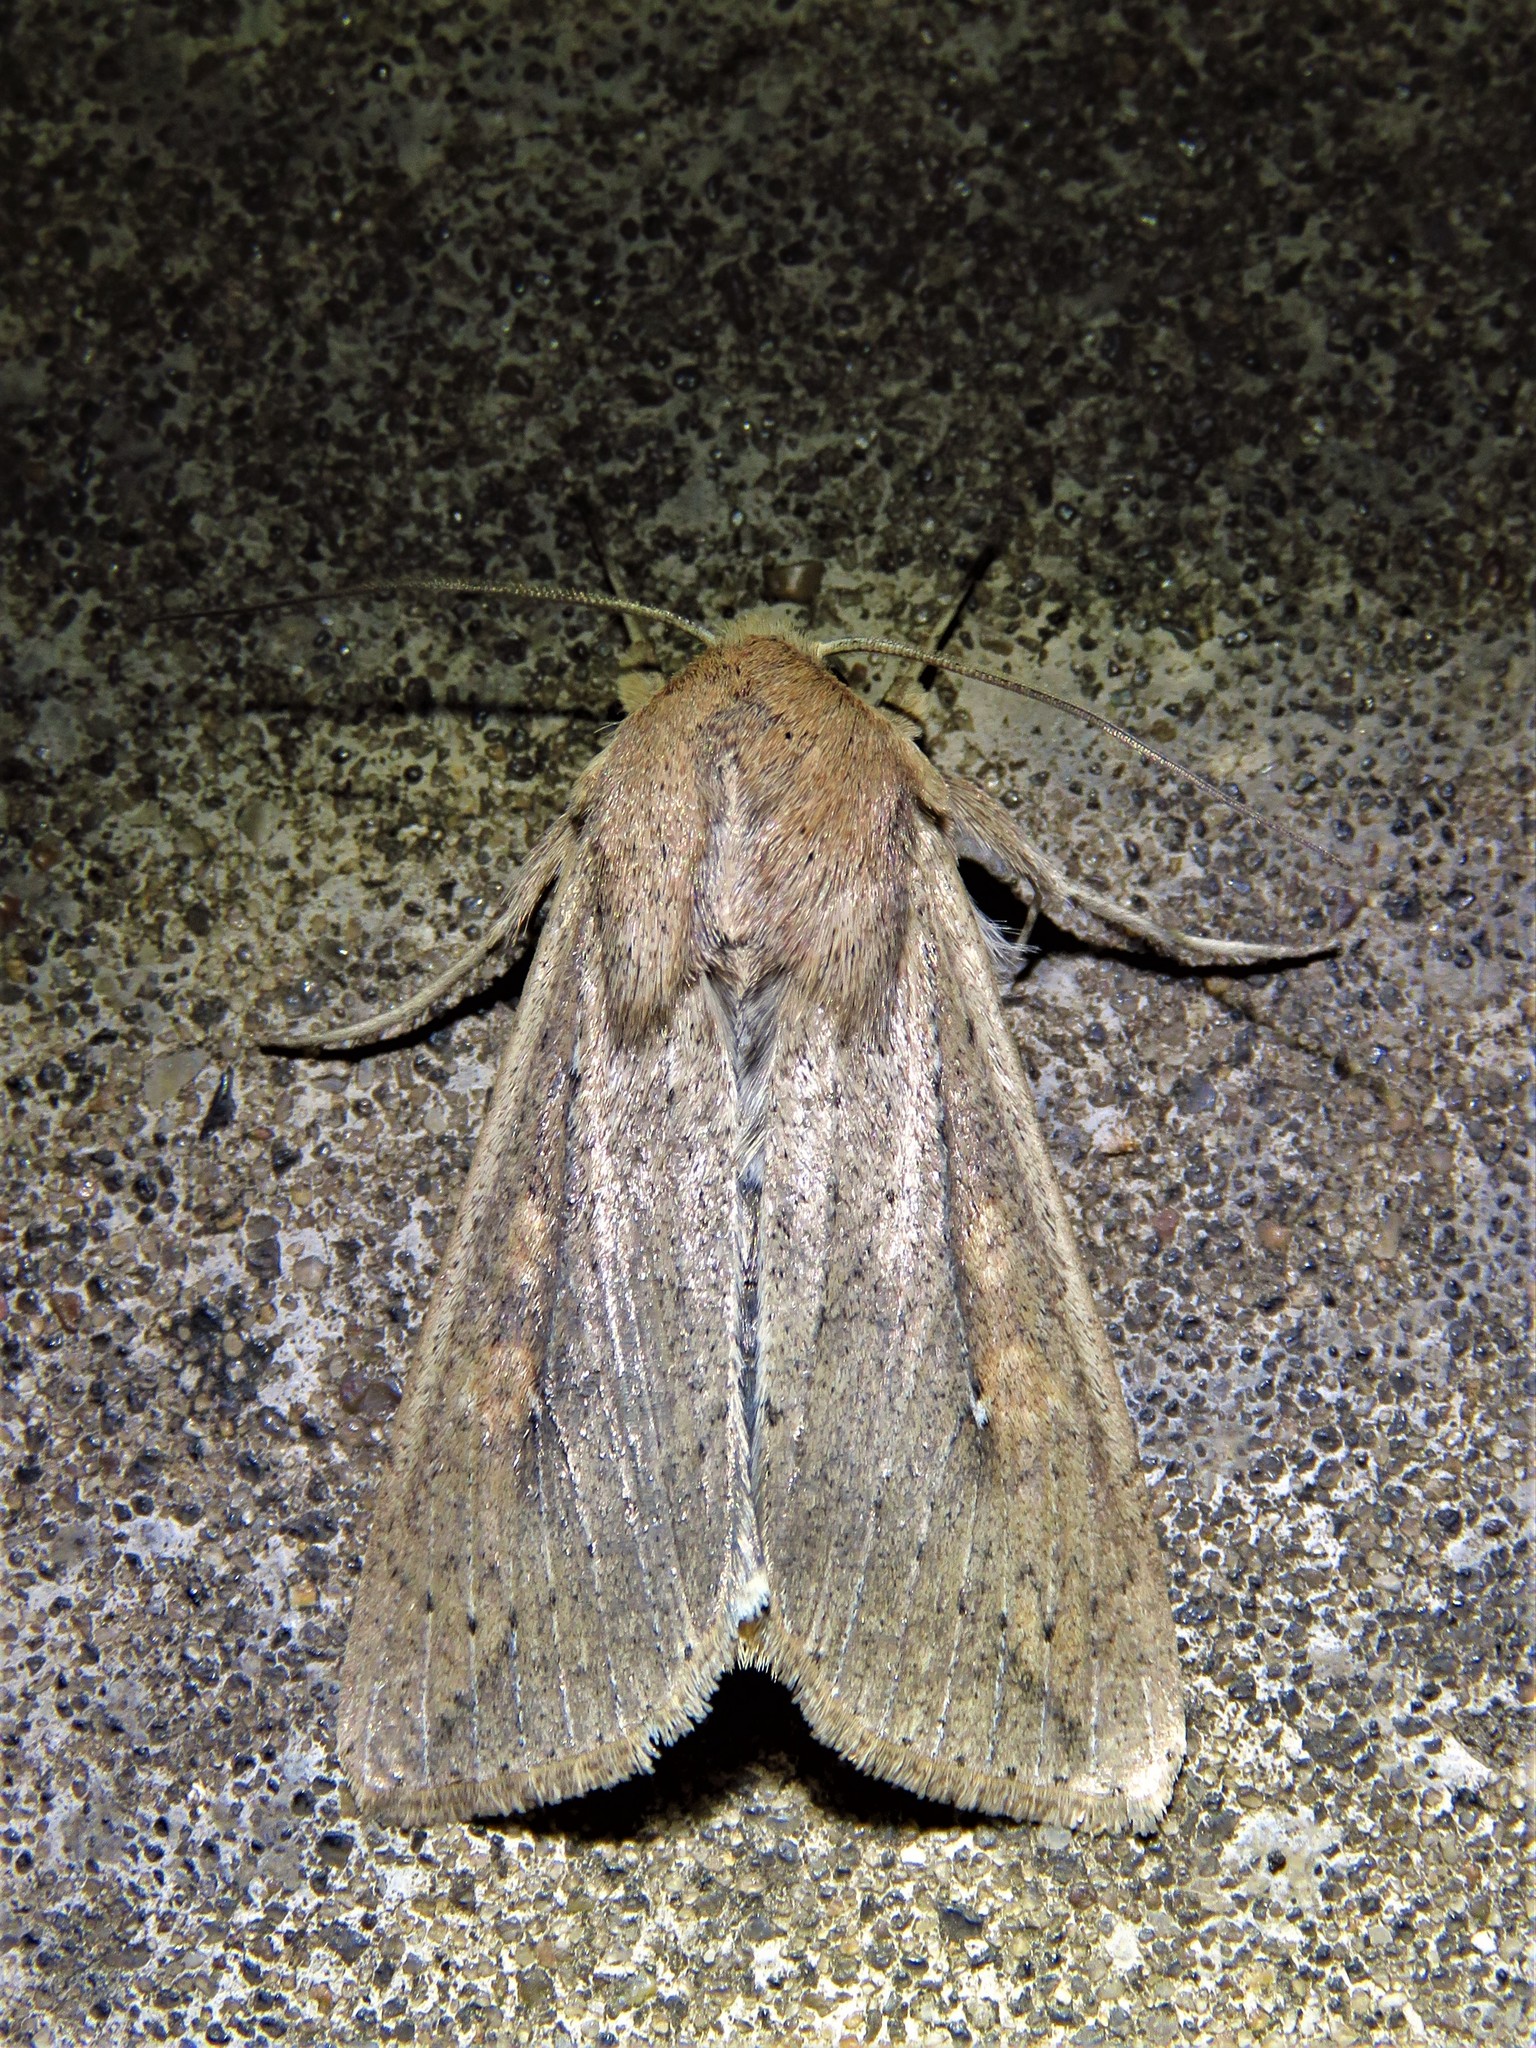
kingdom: Animalia
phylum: Arthropoda
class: Insecta
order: Lepidoptera
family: Noctuidae
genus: Mythimna
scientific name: Mythimna unipuncta
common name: White-speck
